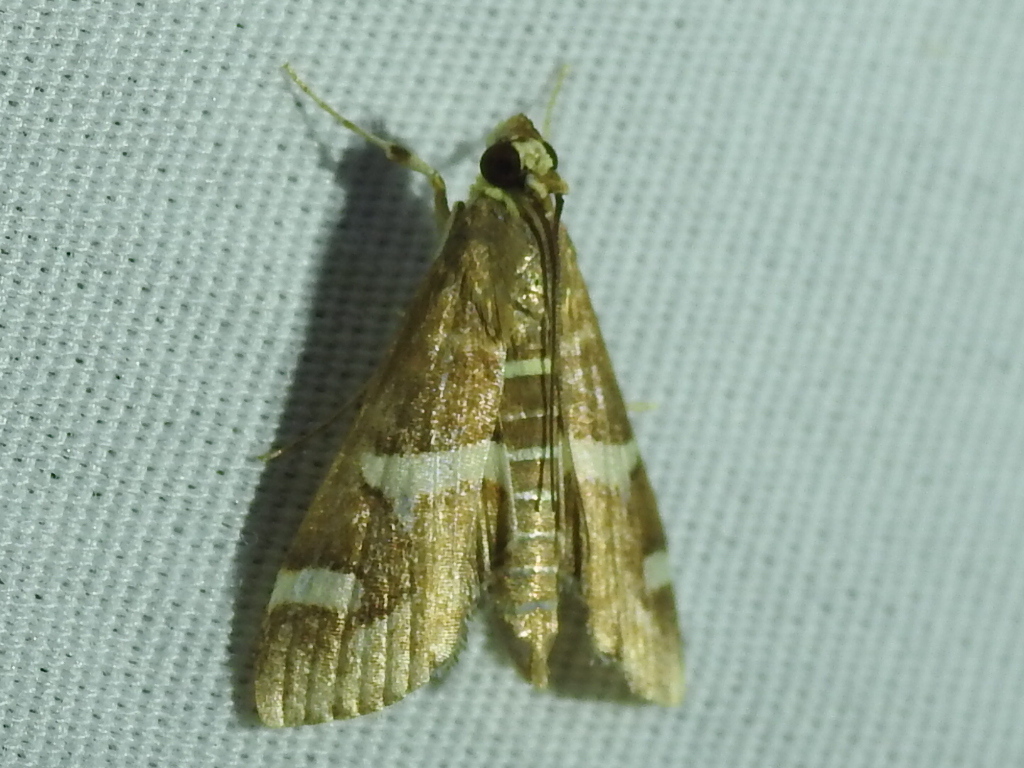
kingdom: Animalia
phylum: Arthropoda
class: Insecta
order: Lepidoptera
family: Crambidae
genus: Spoladea
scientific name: Spoladea recurvalis
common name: Beet webworm moth
